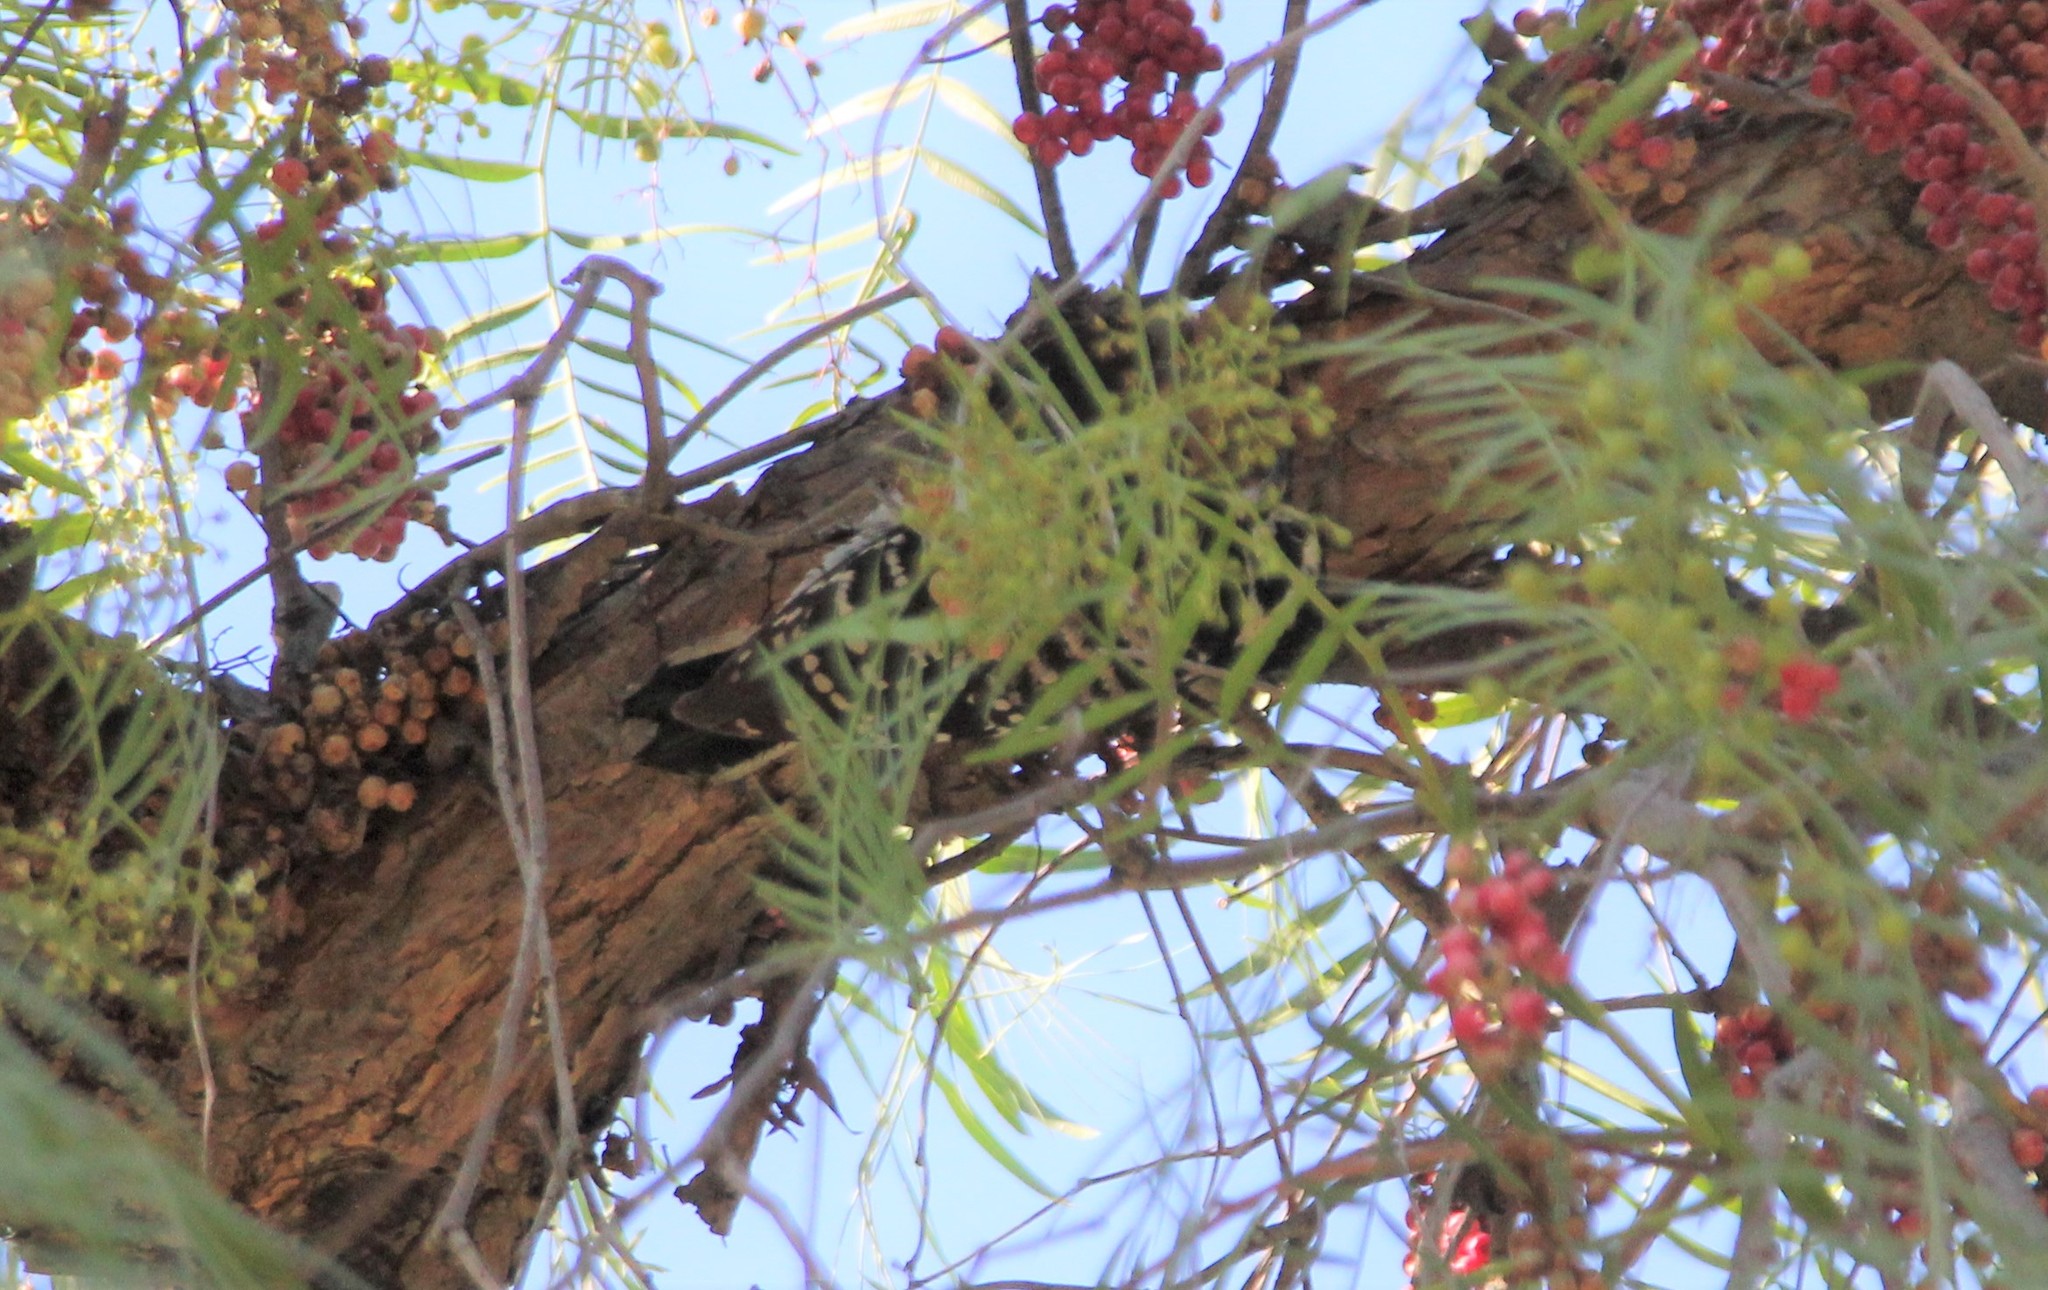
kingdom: Animalia
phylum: Chordata
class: Aves
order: Piciformes
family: Picidae
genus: Dryobates
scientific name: Dryobates nuttallii
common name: Nuttall's woodpecker
